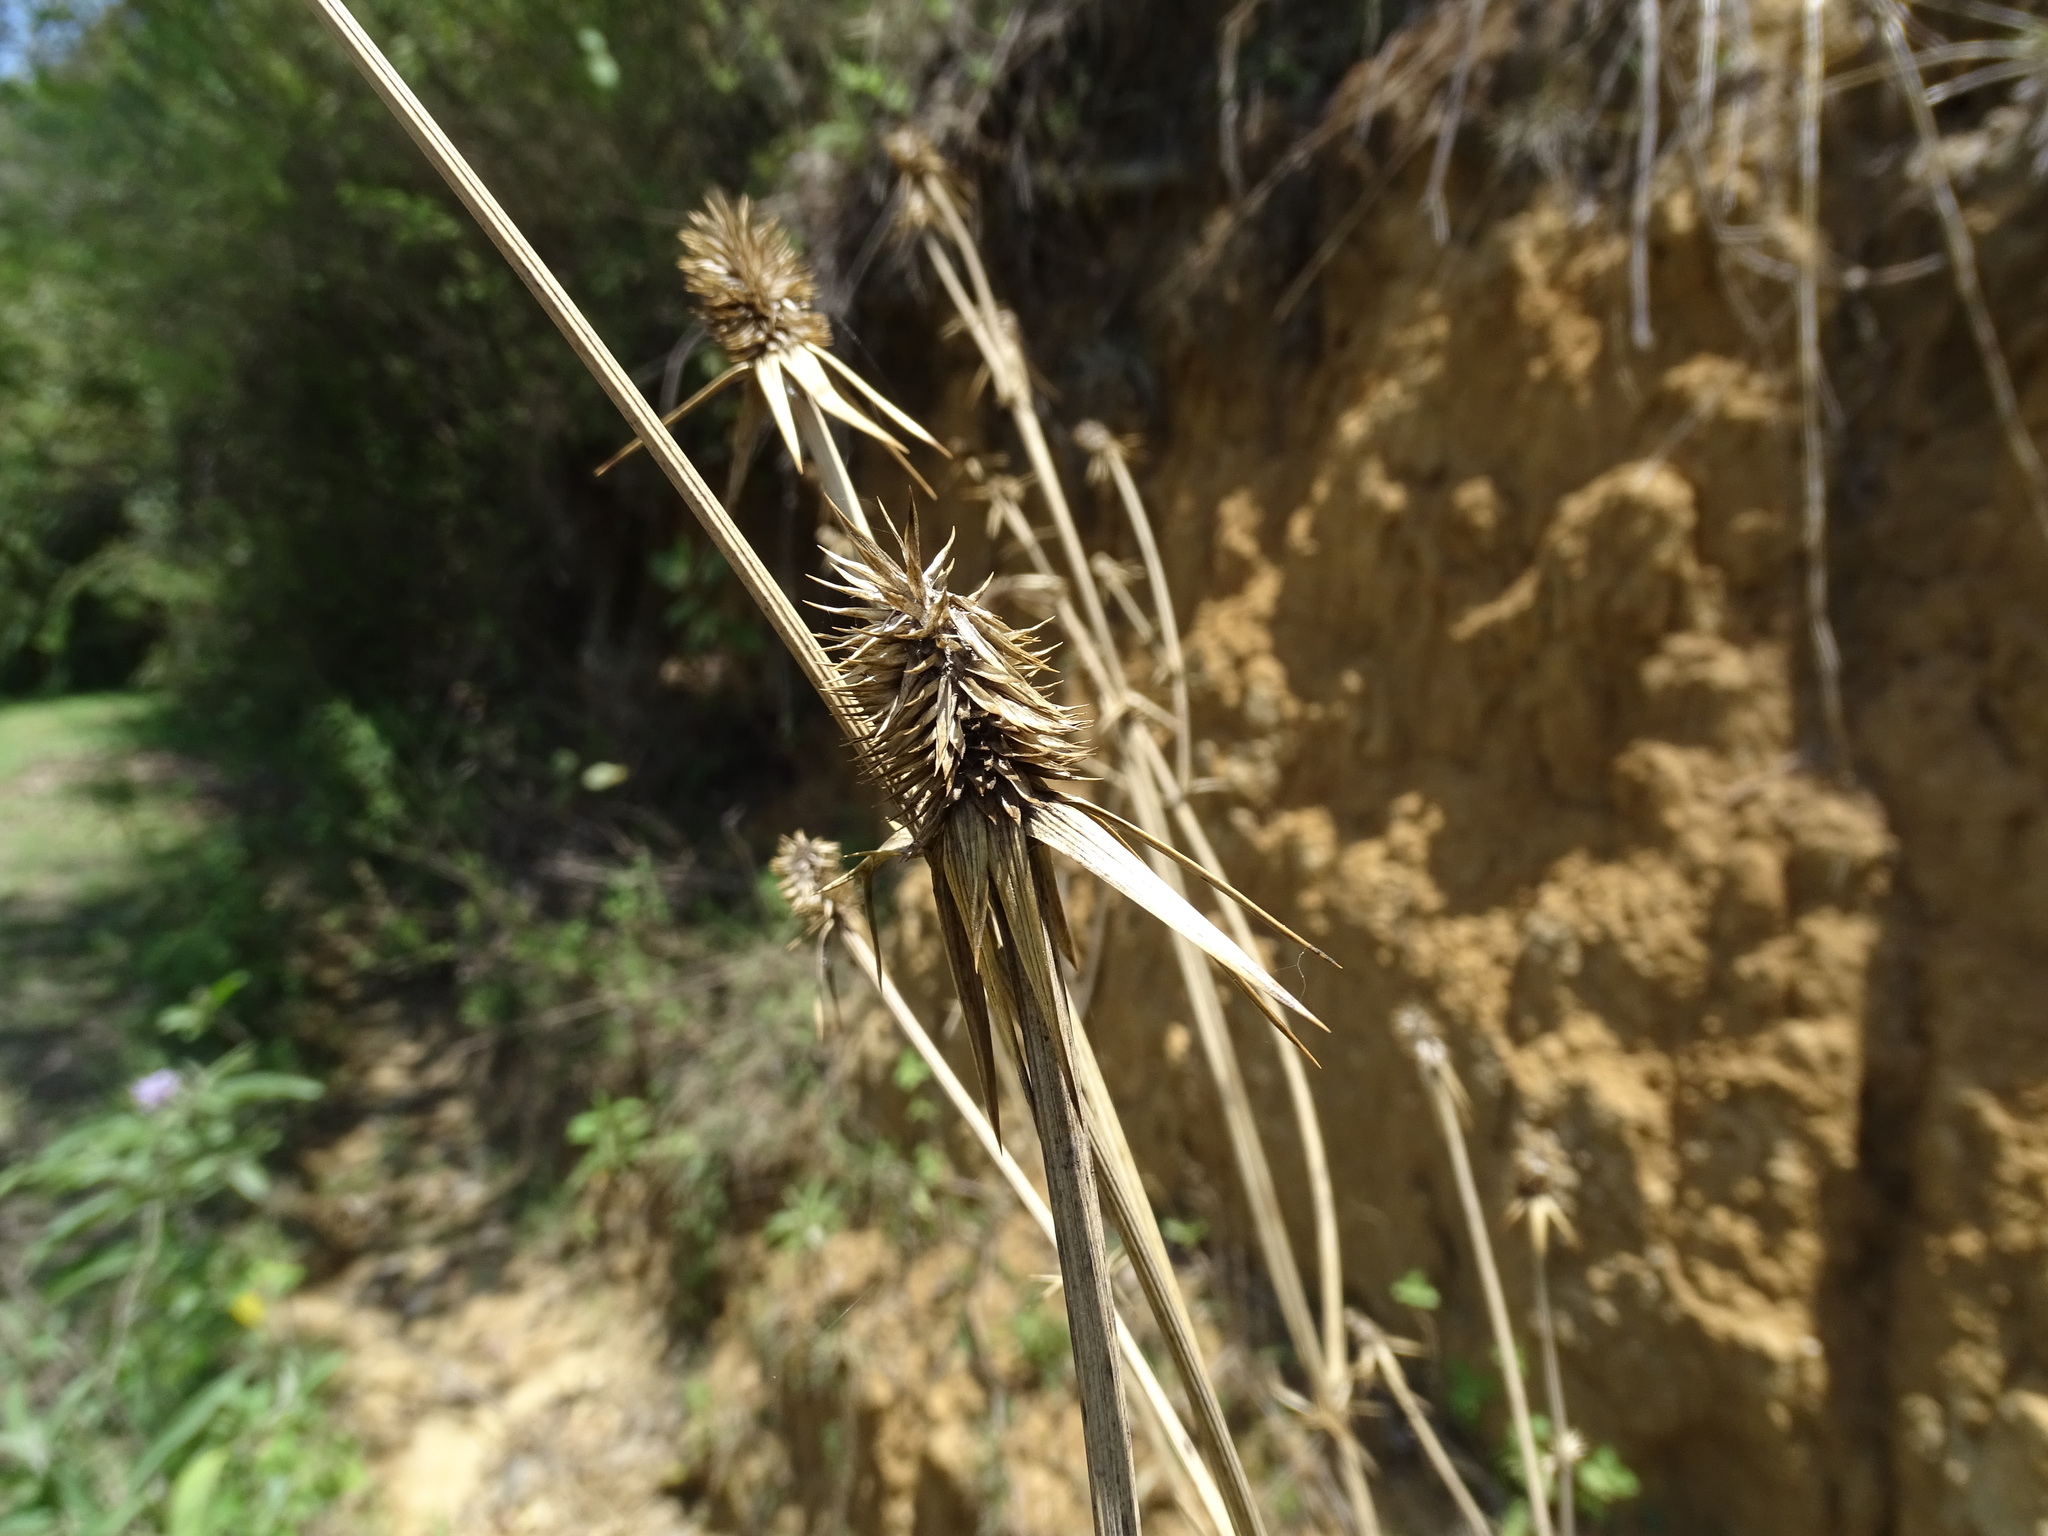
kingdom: Plantae
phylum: Tracheophyta
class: Magnoliopsida
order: Apiales
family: Apiaceae
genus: Eryngium
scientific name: Eryngium alternatum
